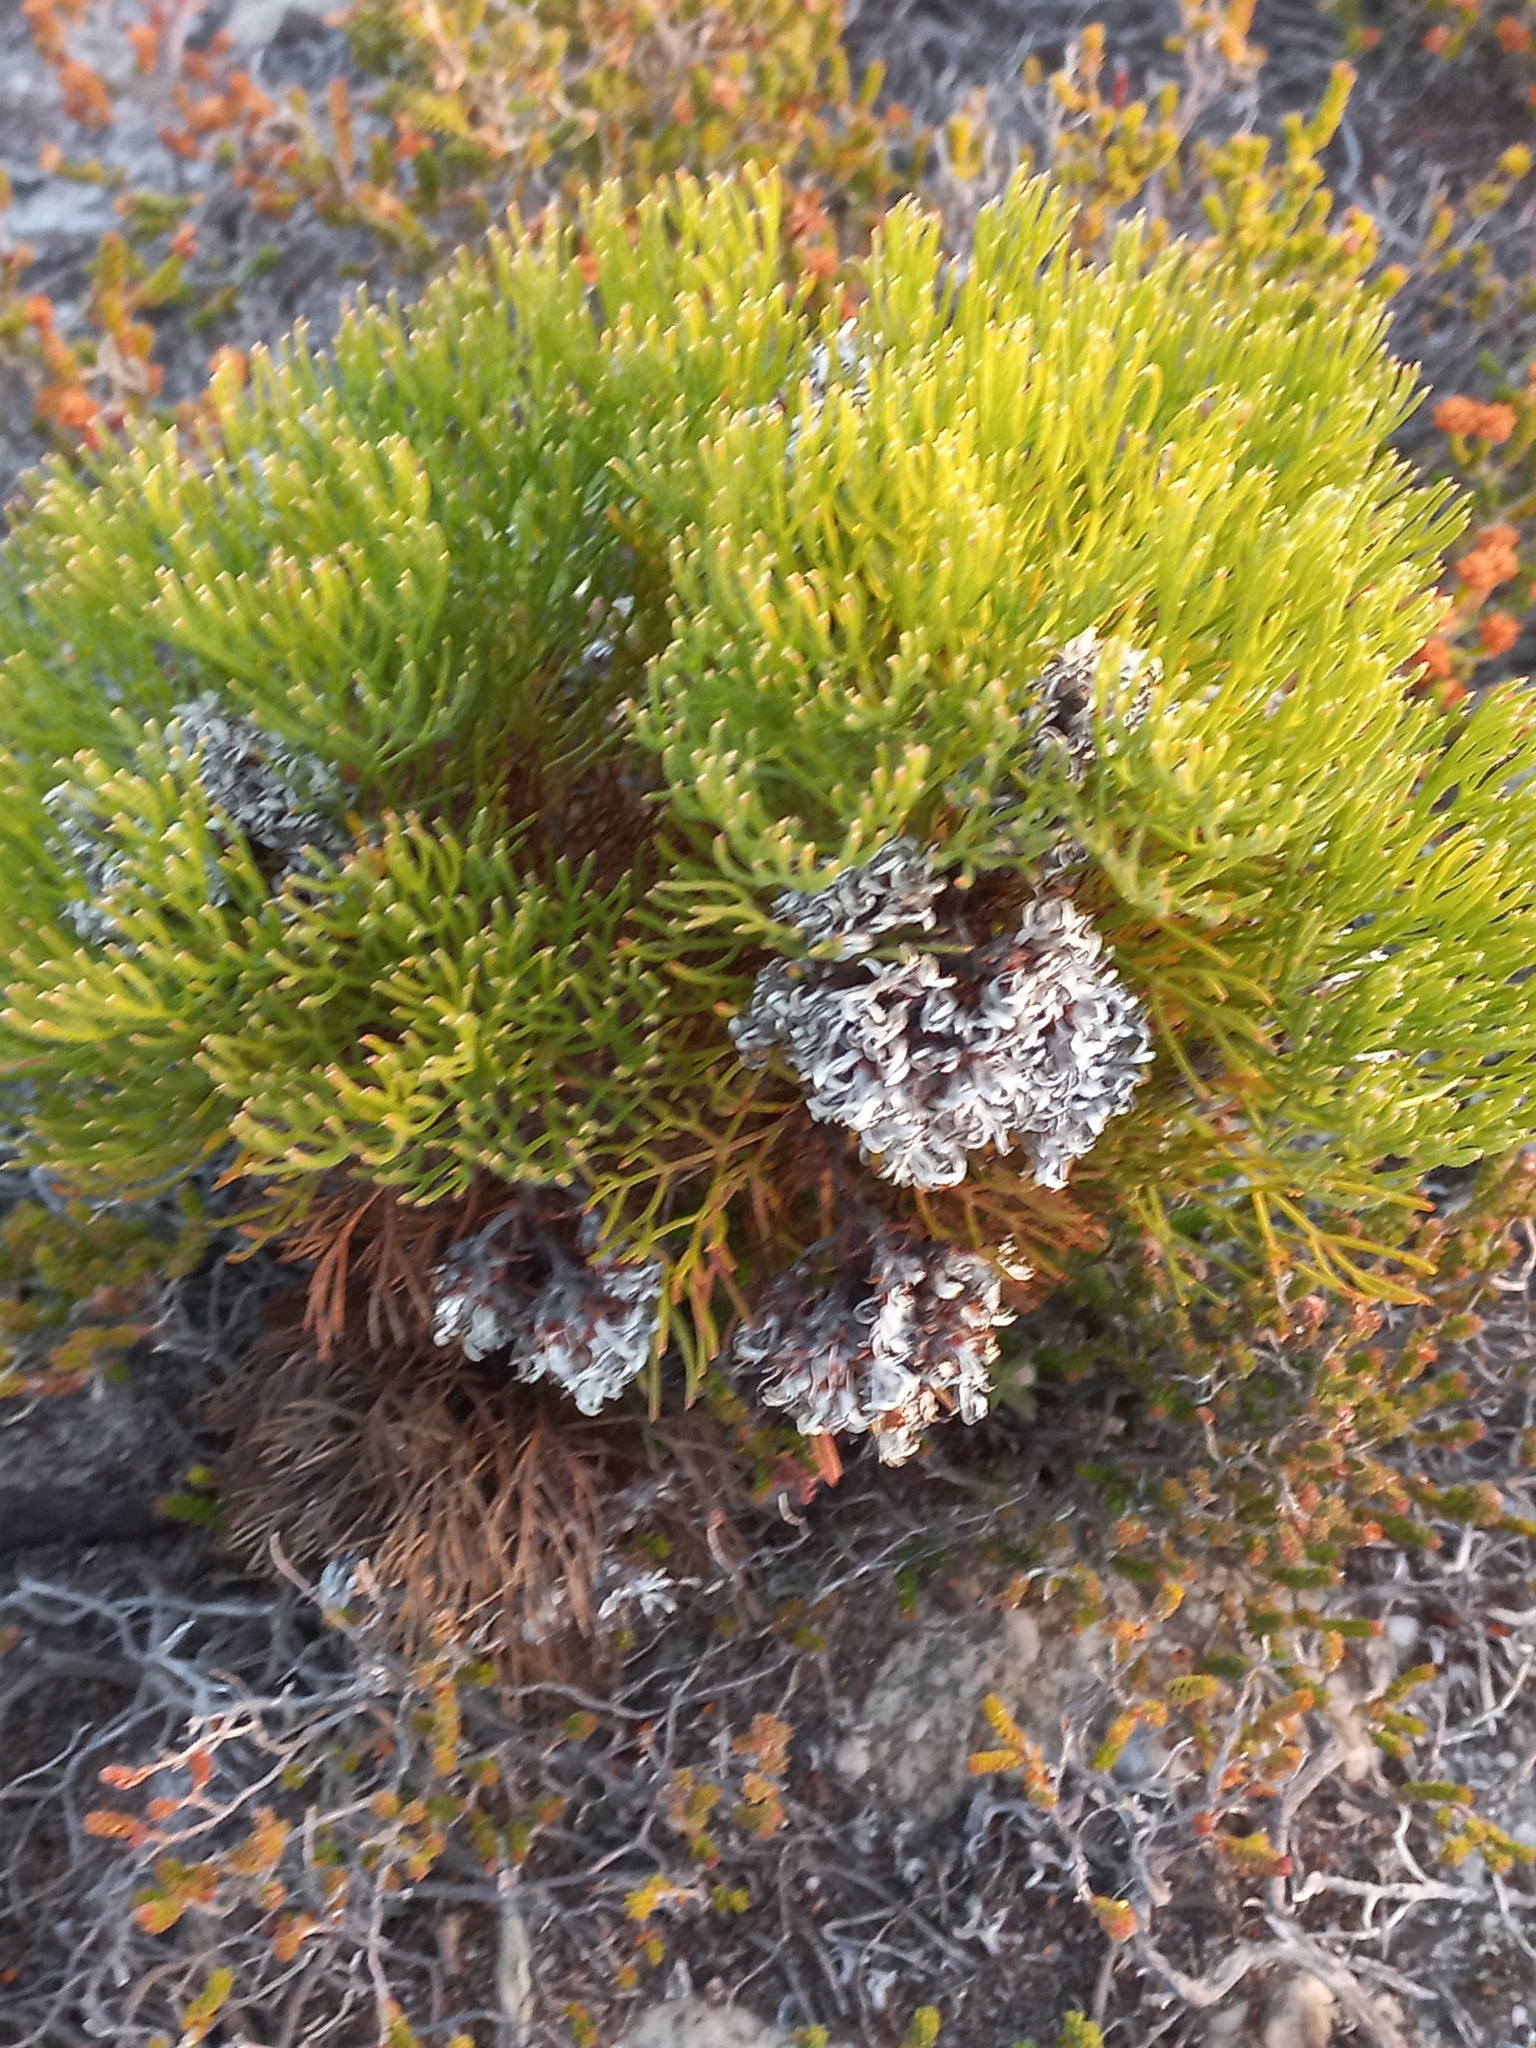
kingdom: Plantae
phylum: Tracheophyta
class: Magnoliopsida
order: Proteales
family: Proteaceae
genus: Serruria
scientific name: Serruria ascendens
